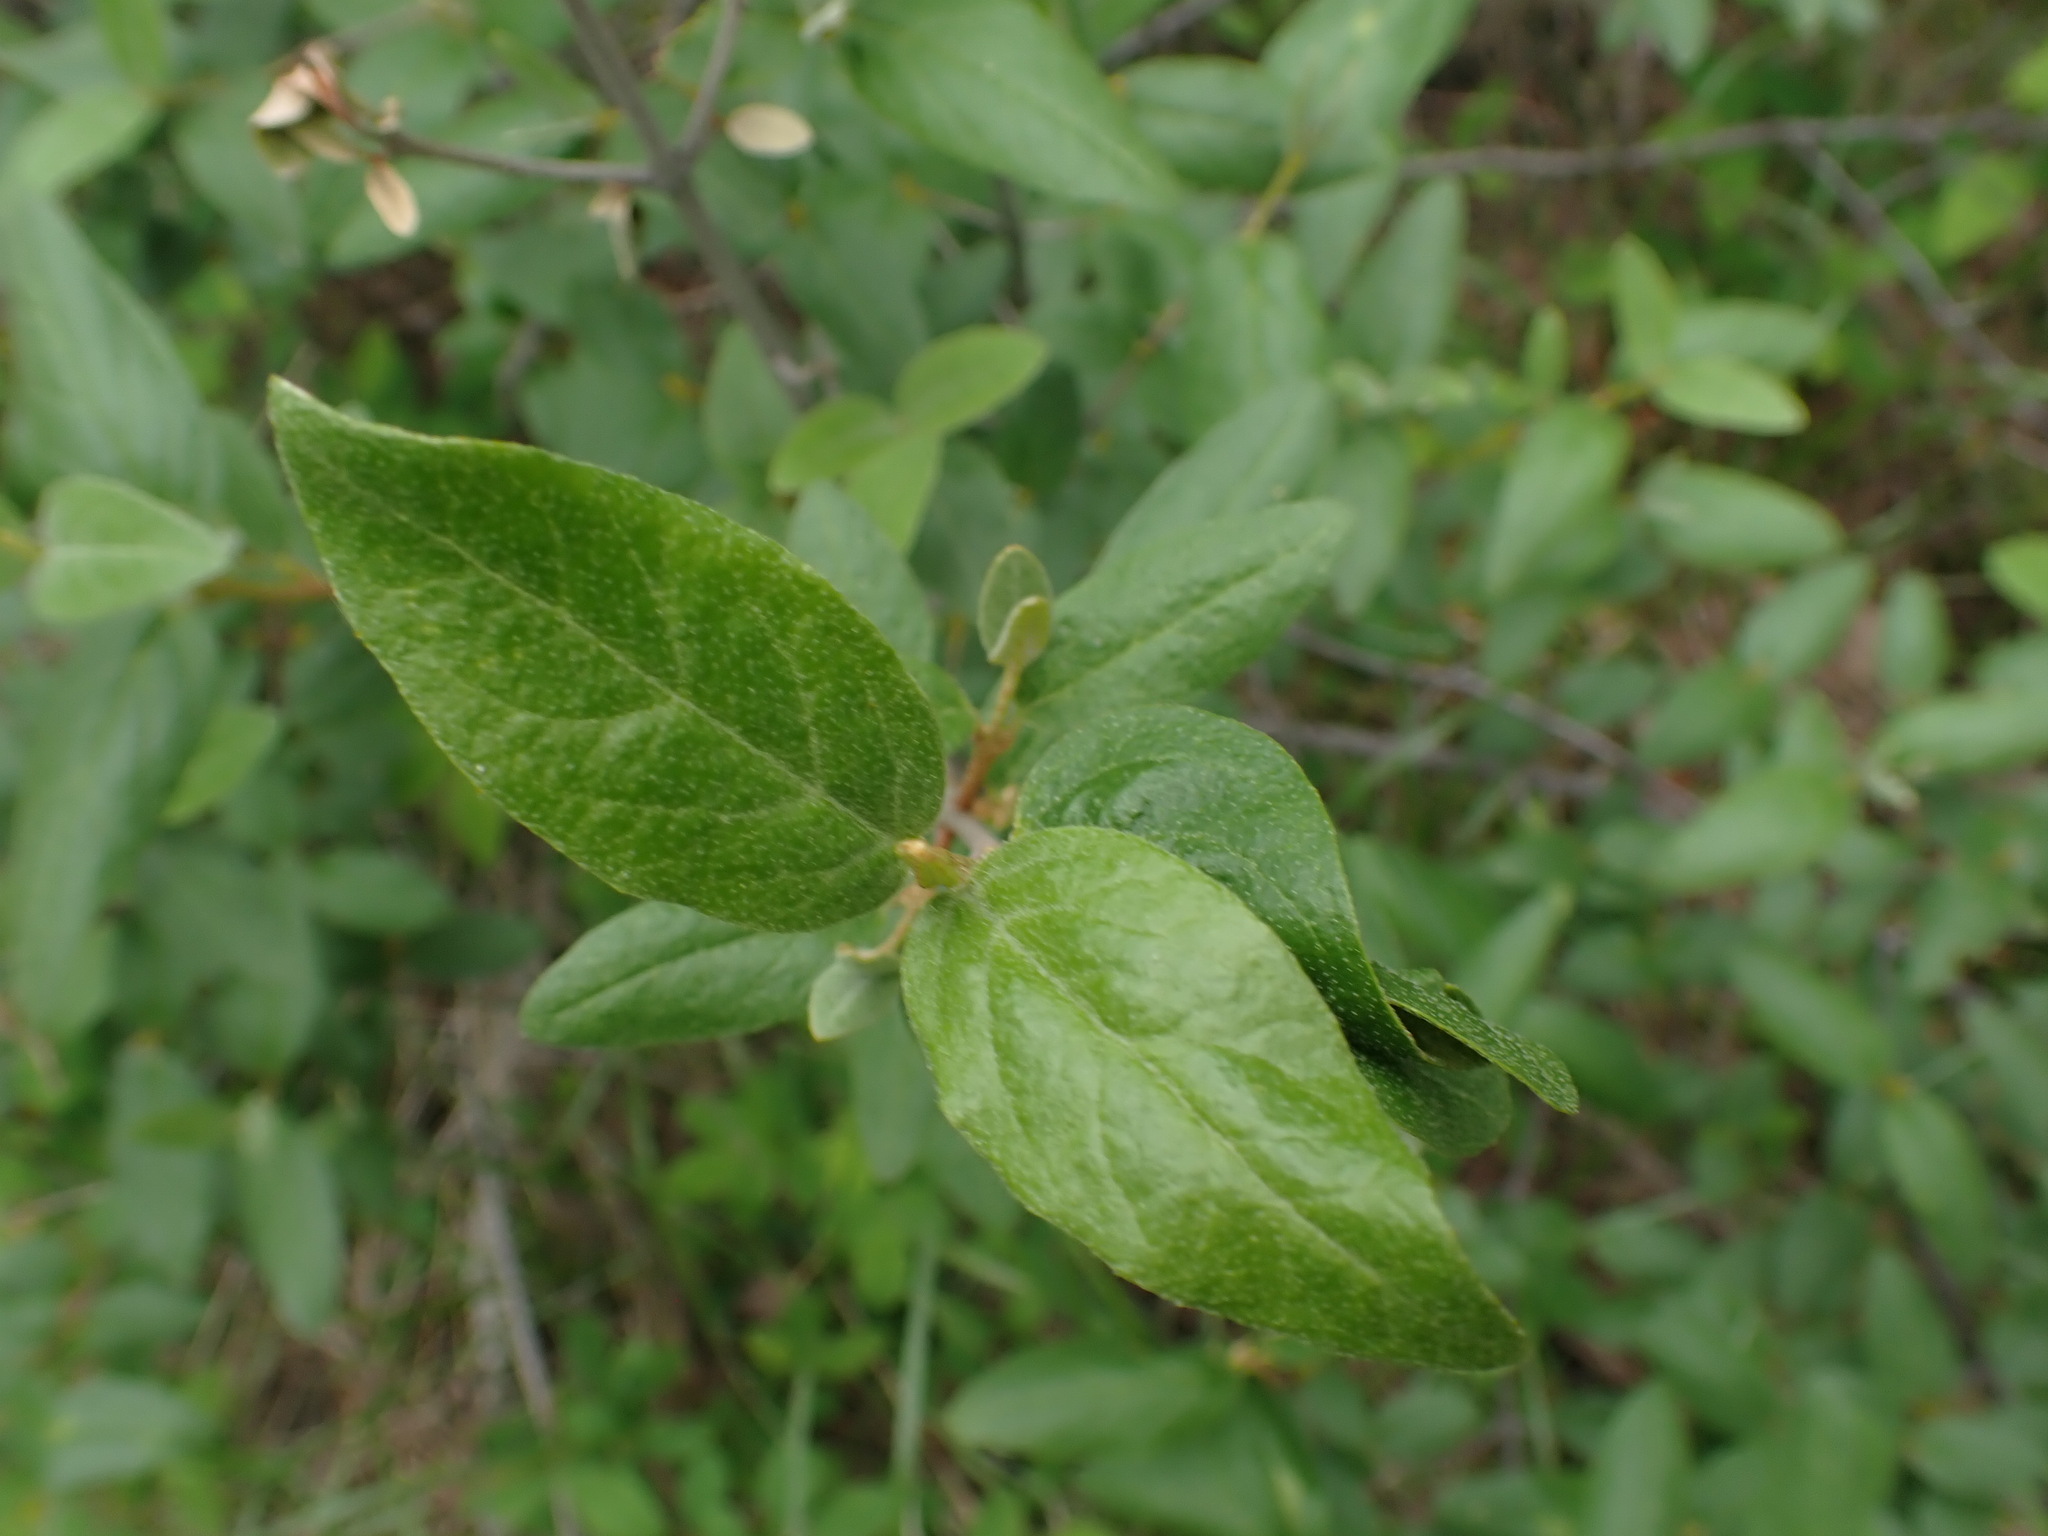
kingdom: Plantae
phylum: Tracheophyta
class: Magnoliopsida
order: Rosales
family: Elaeagnaceae
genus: Shepherdia
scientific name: Shepherdia canadensis
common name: Soapberry
